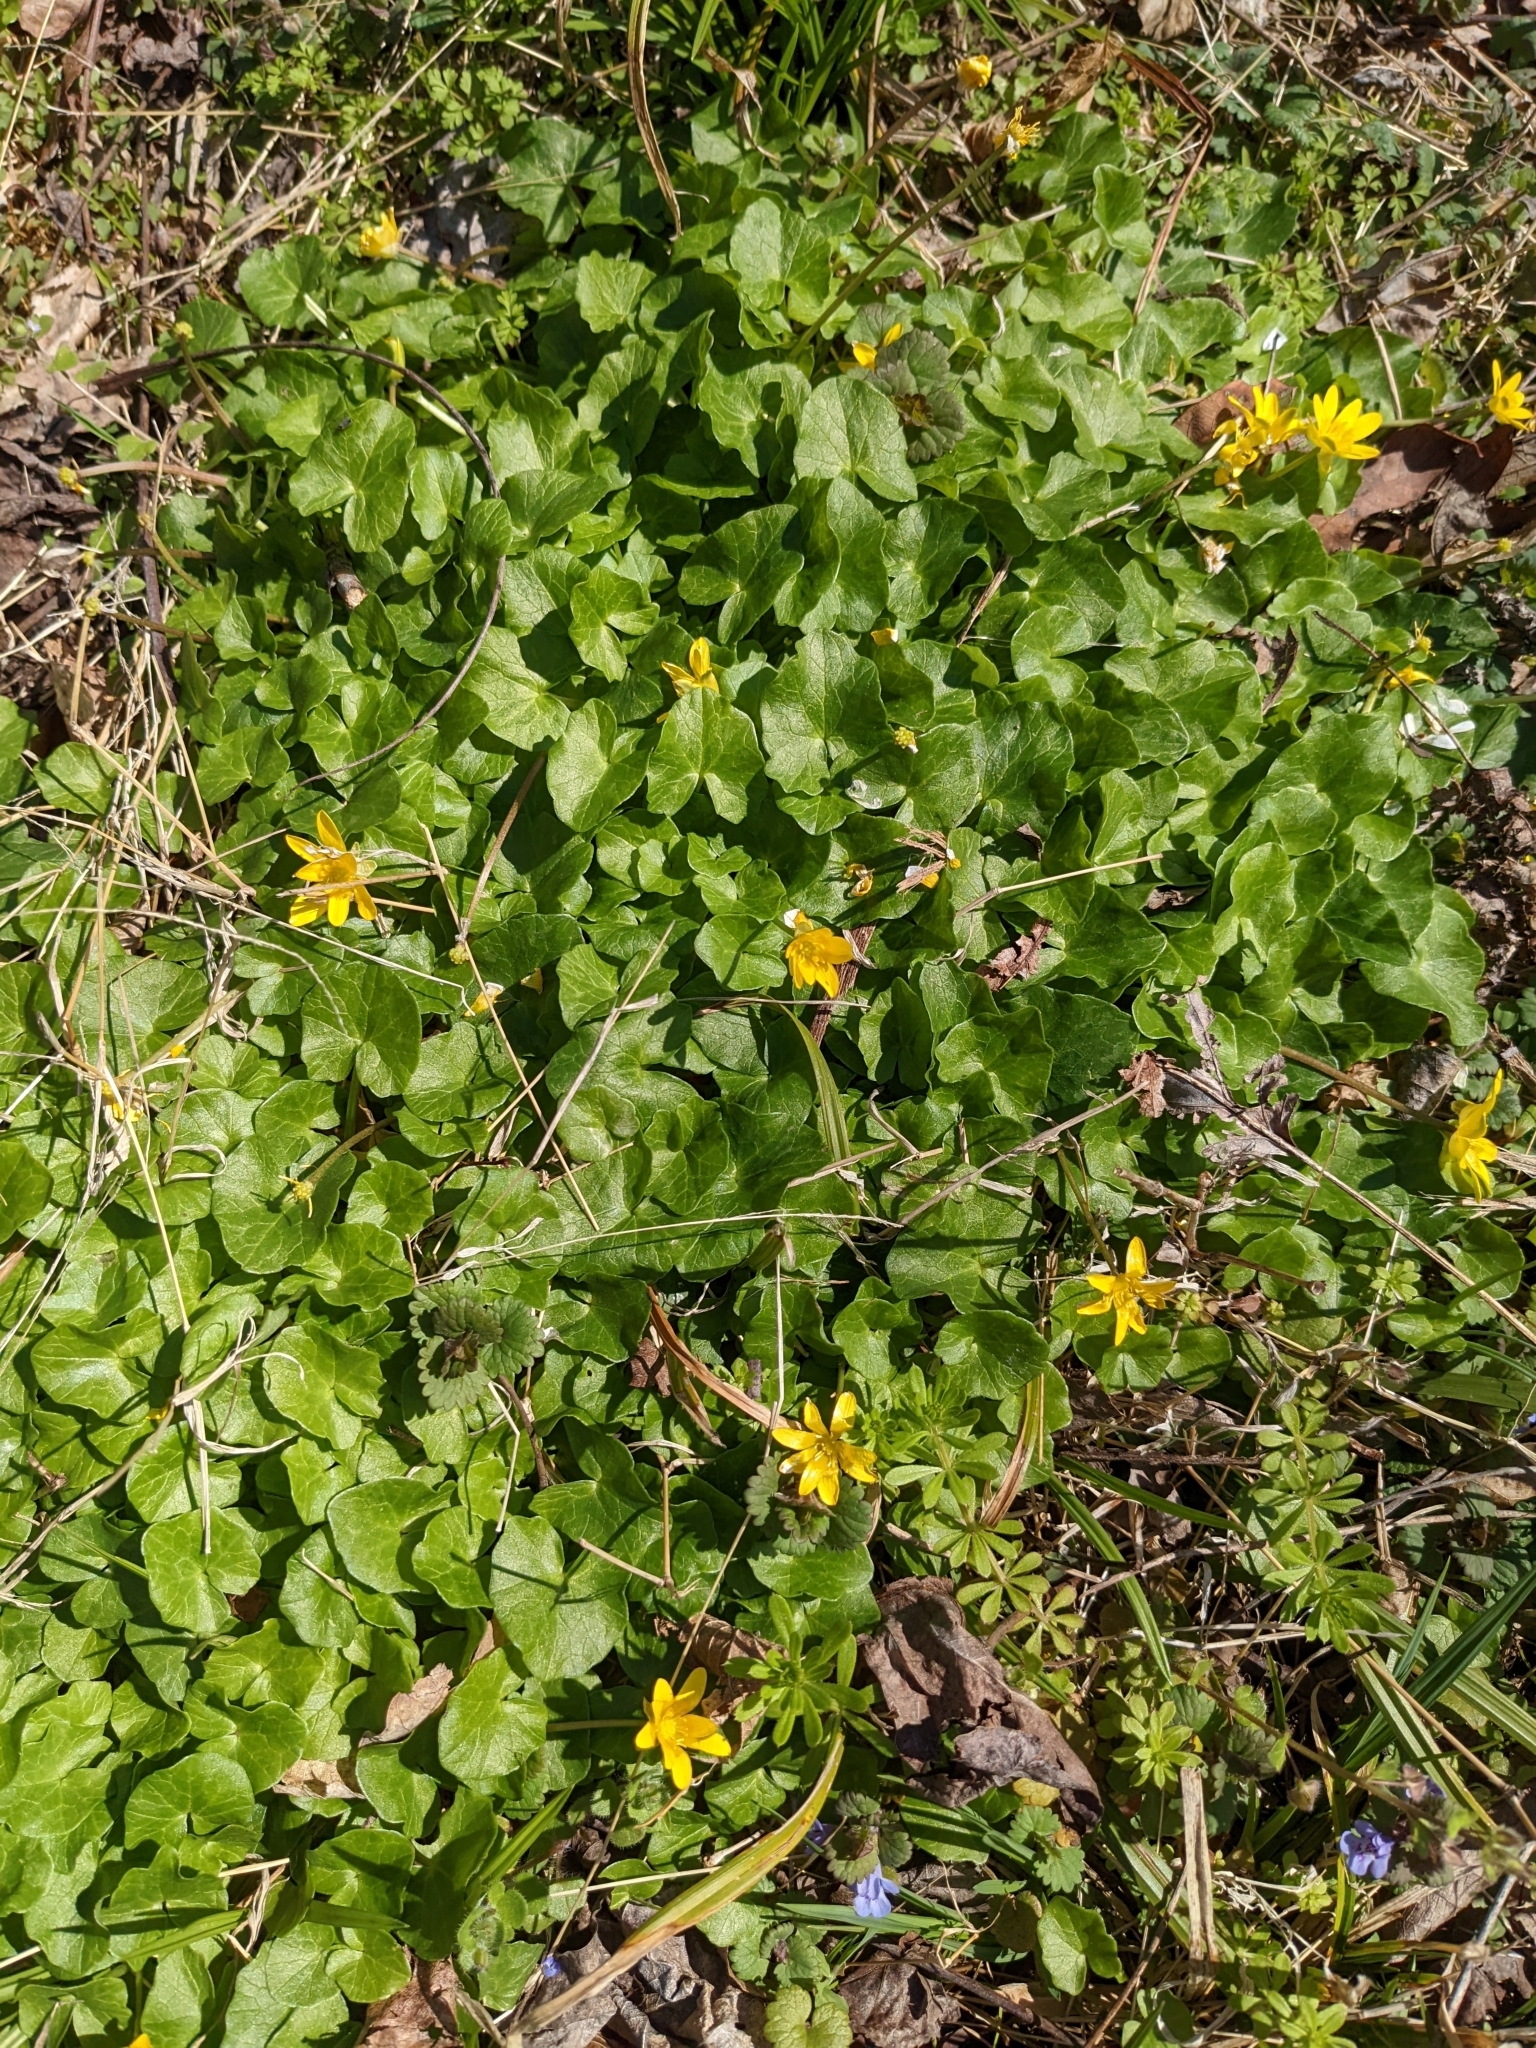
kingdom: Plantae
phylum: Tracheophyta
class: Magnoliopsida
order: Ranunculales
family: Ranunculaceae
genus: Ficaria
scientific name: Ficaria verna
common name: Lesser celandine
